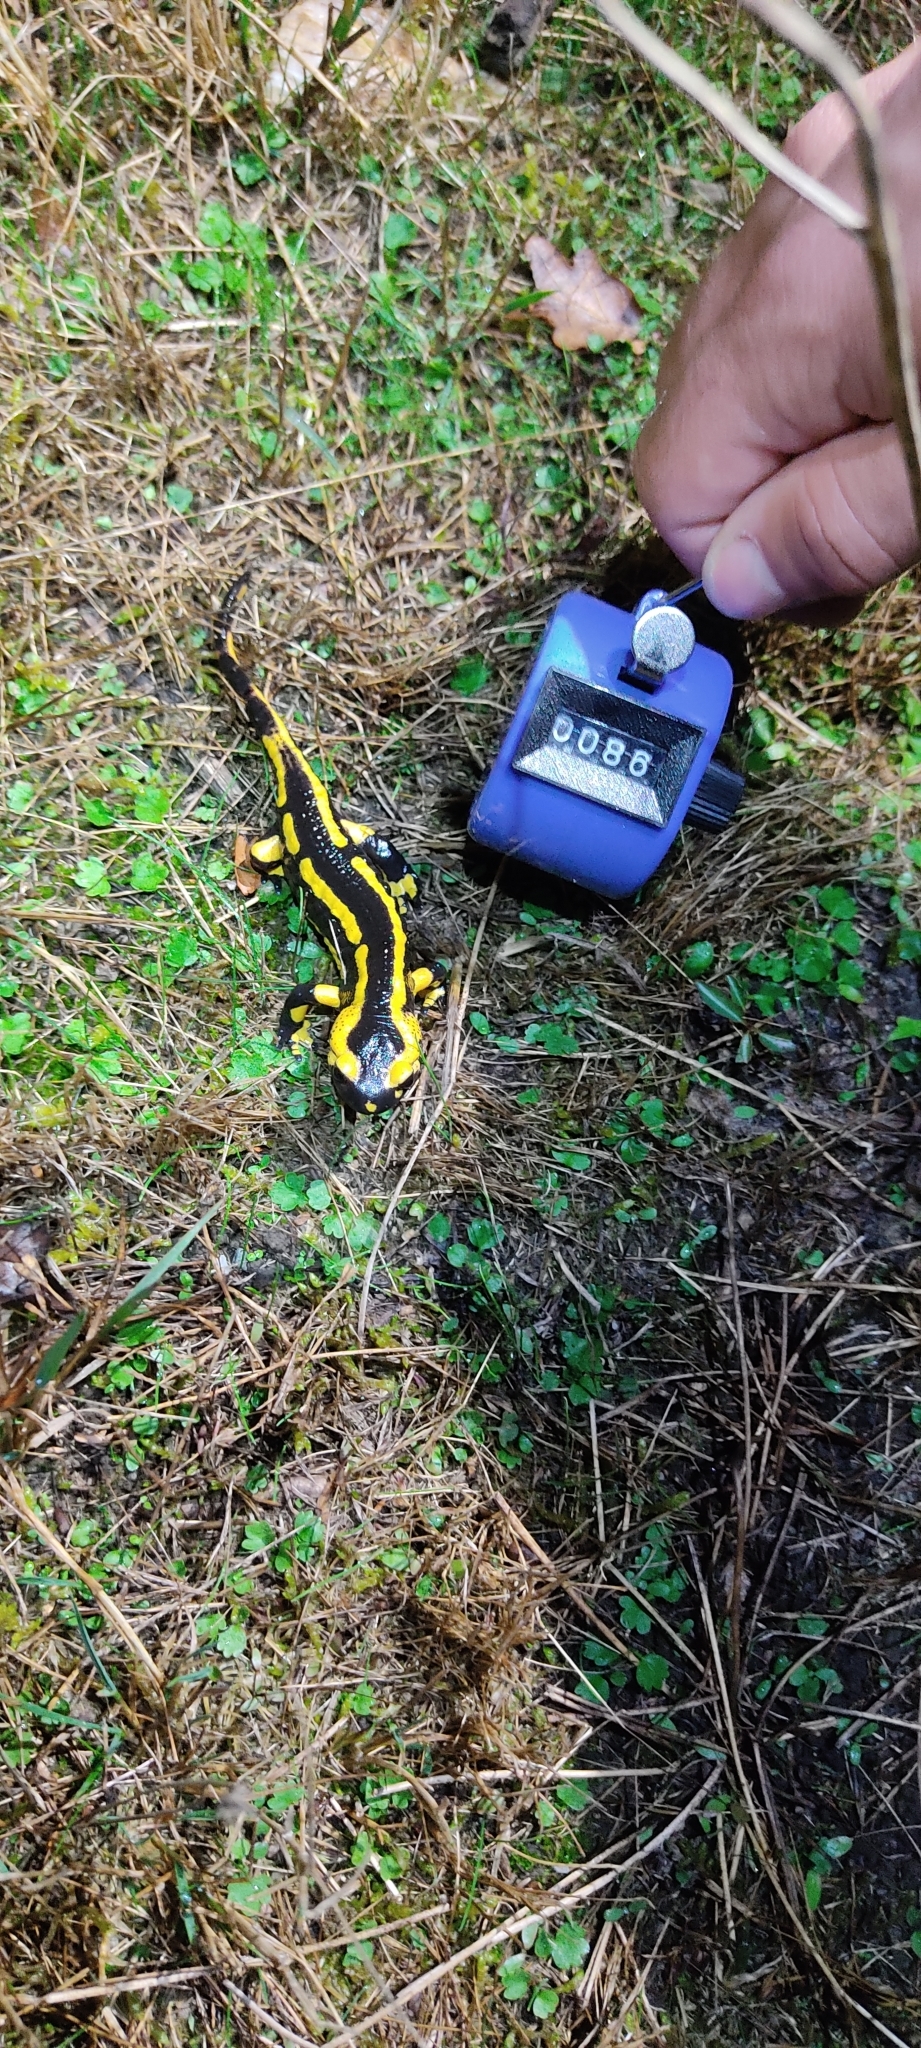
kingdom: Animalia
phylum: Chordata
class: Amphibia
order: Caudata
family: Salamandridae
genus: Salamandra
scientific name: Salamandra salamandra
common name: Fire salamander
